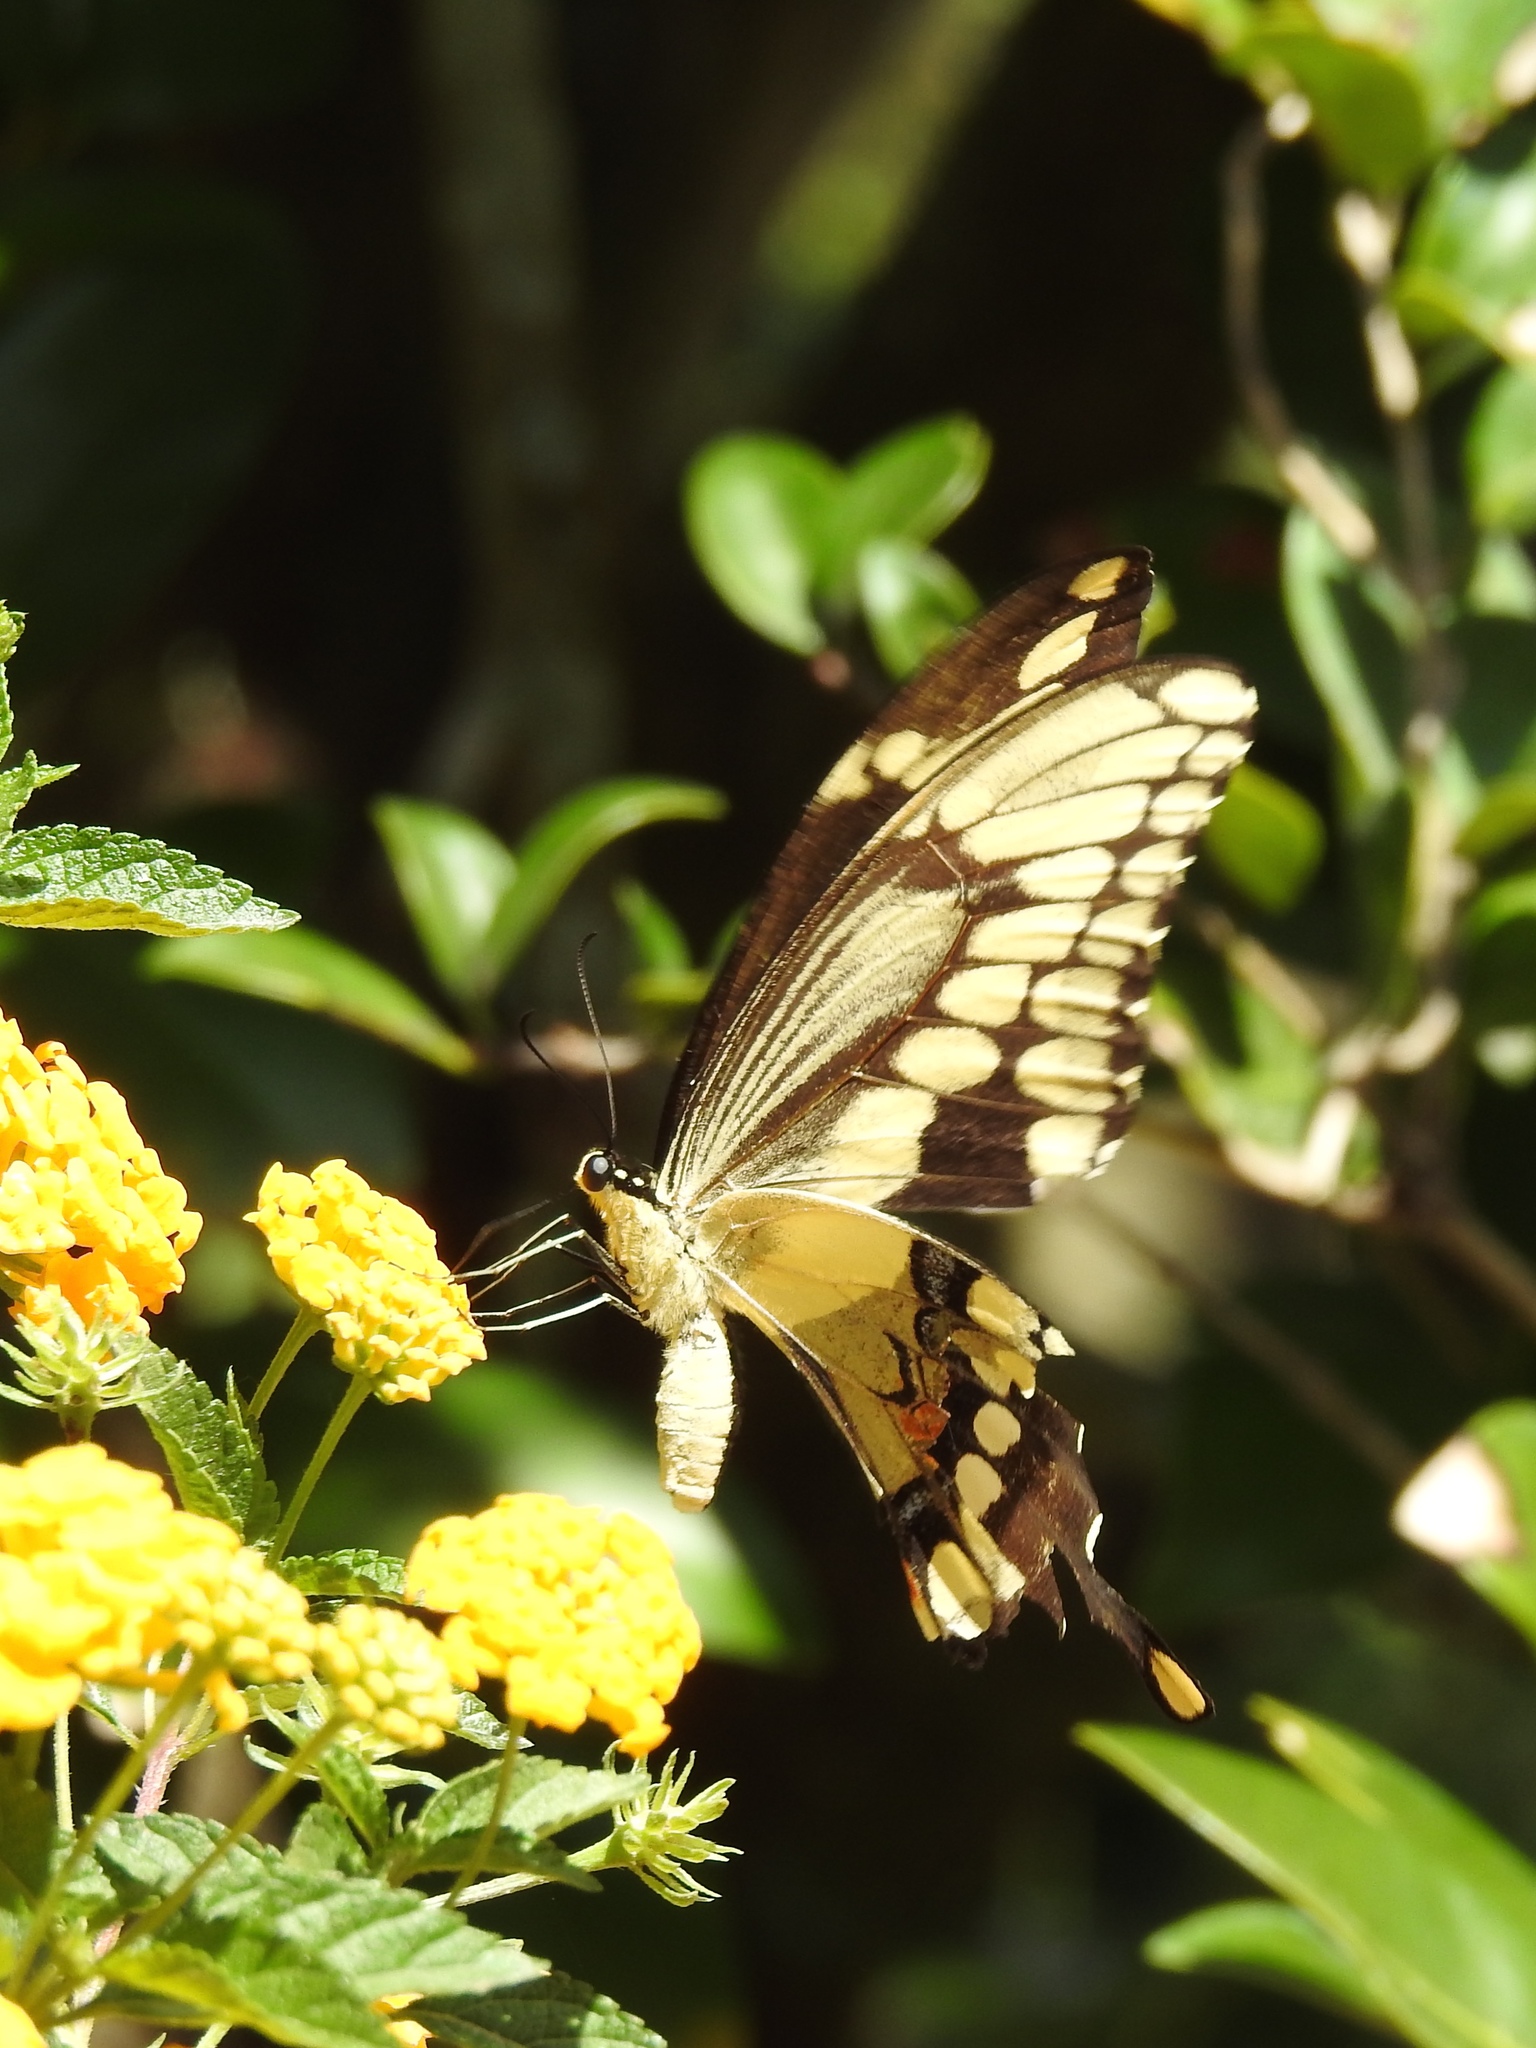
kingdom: Animalia
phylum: Arthropoda
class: Insecta
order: Lepidoptera
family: Papilionidae
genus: Papilio
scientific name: Papilio cresphontes
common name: Giant swallowtail
